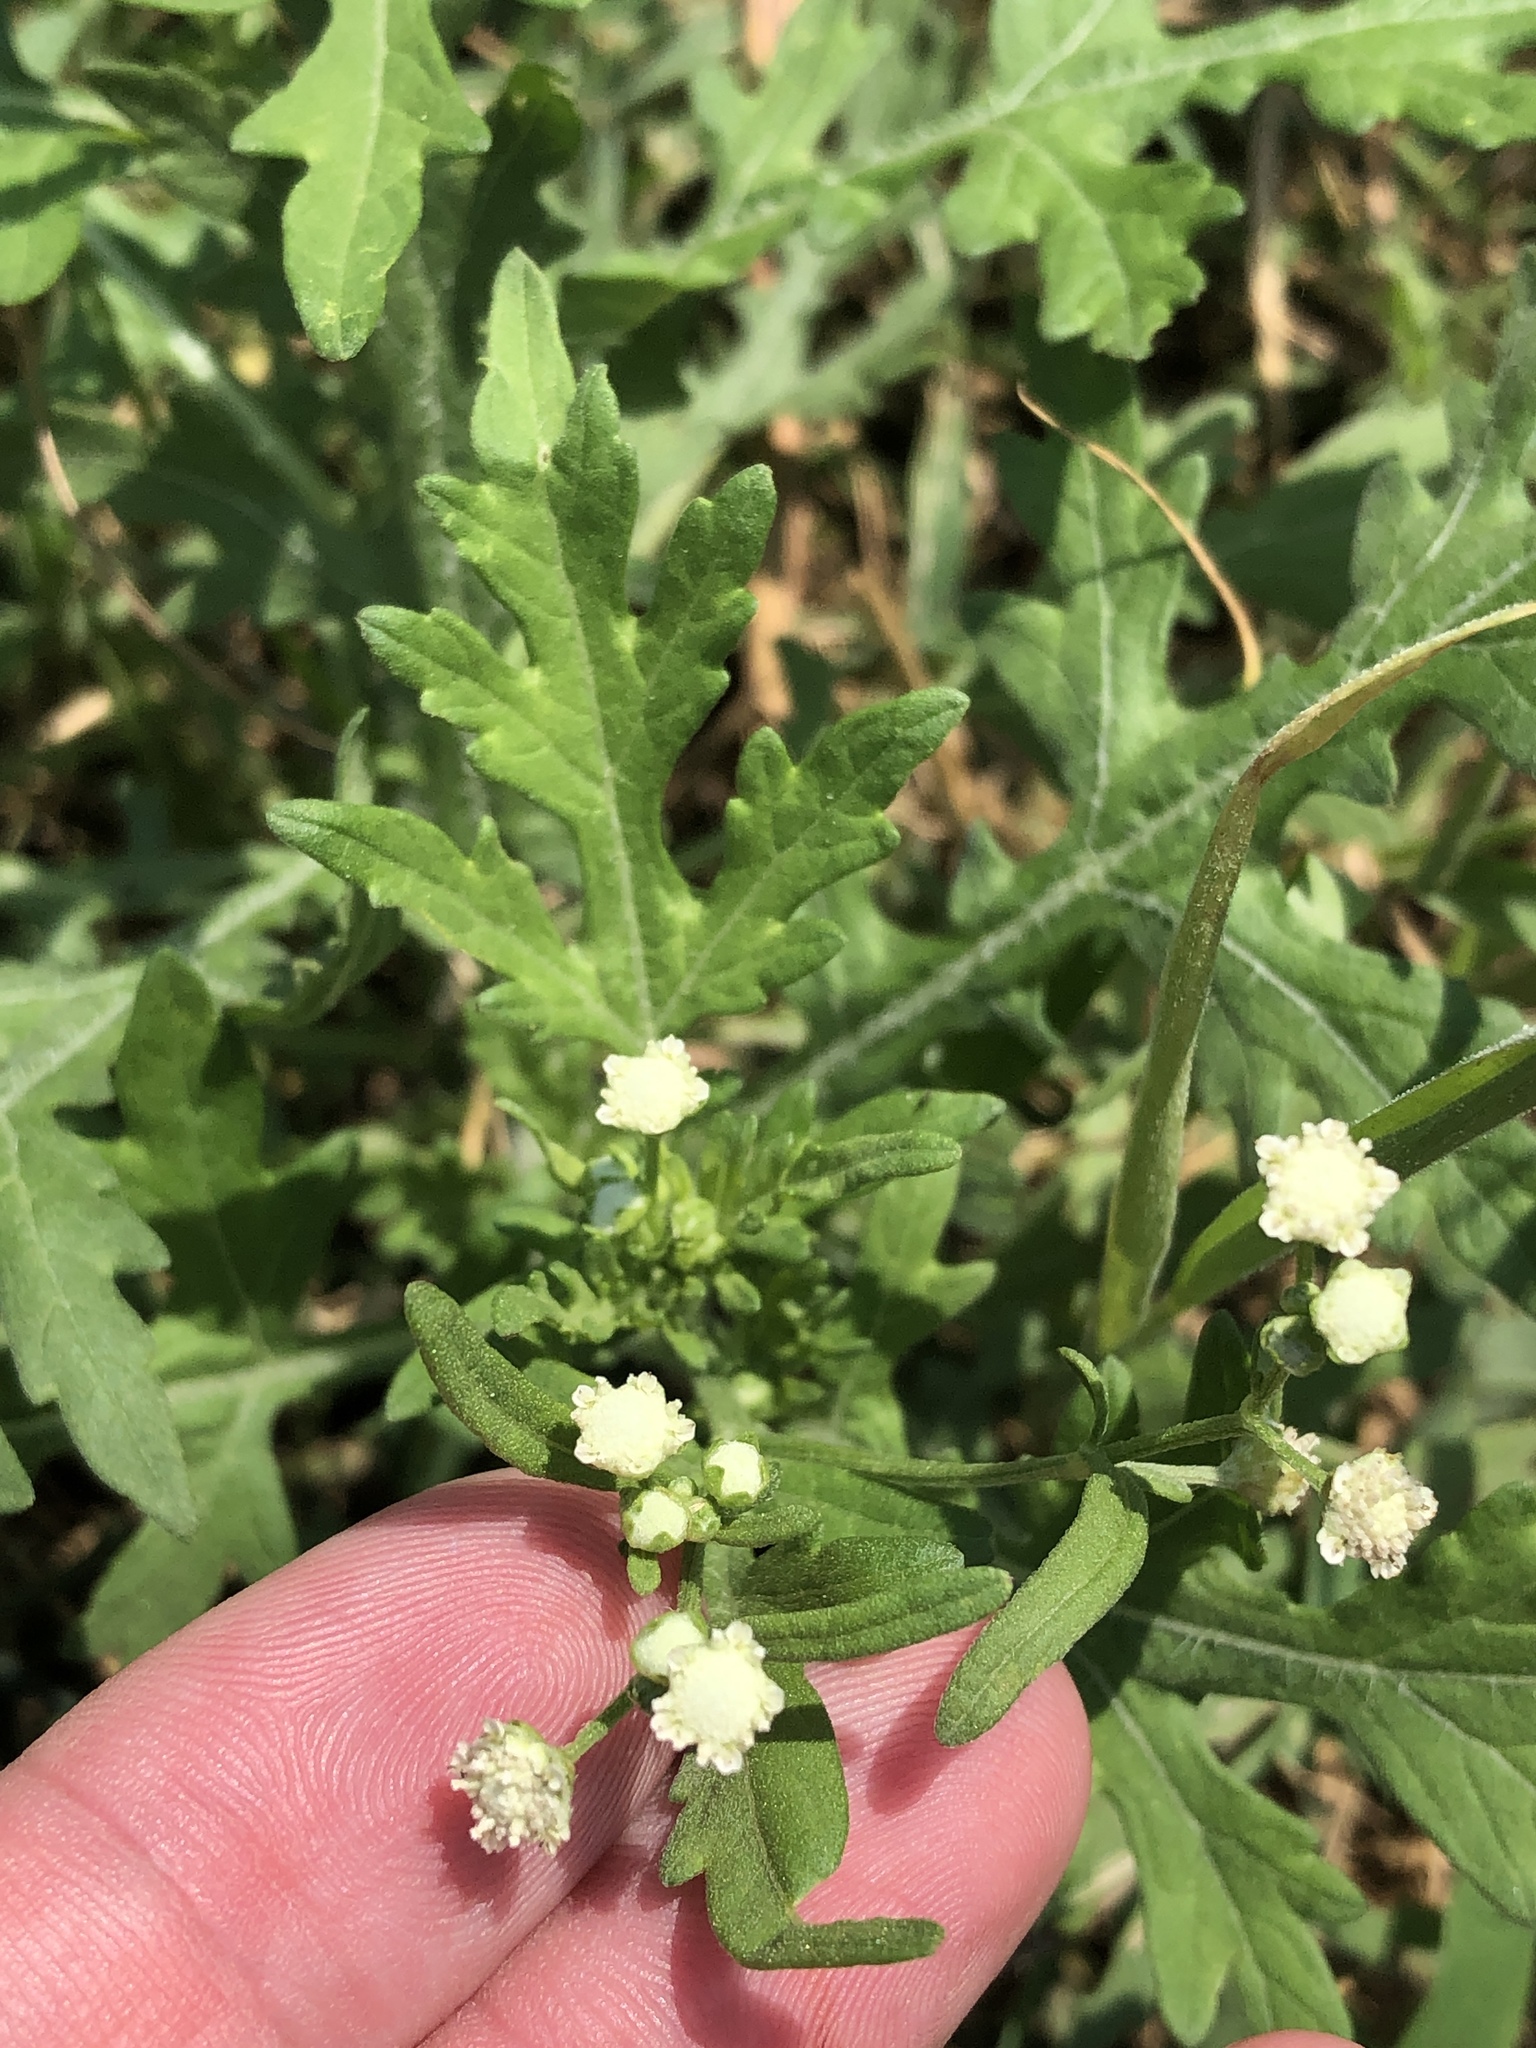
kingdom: Plantae
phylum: Tracheophyta
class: Magnoliopsida
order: Asterales
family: Asteraceae
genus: Parthenium
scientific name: Parthenium hysterophorus
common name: Santa maria feverfew
